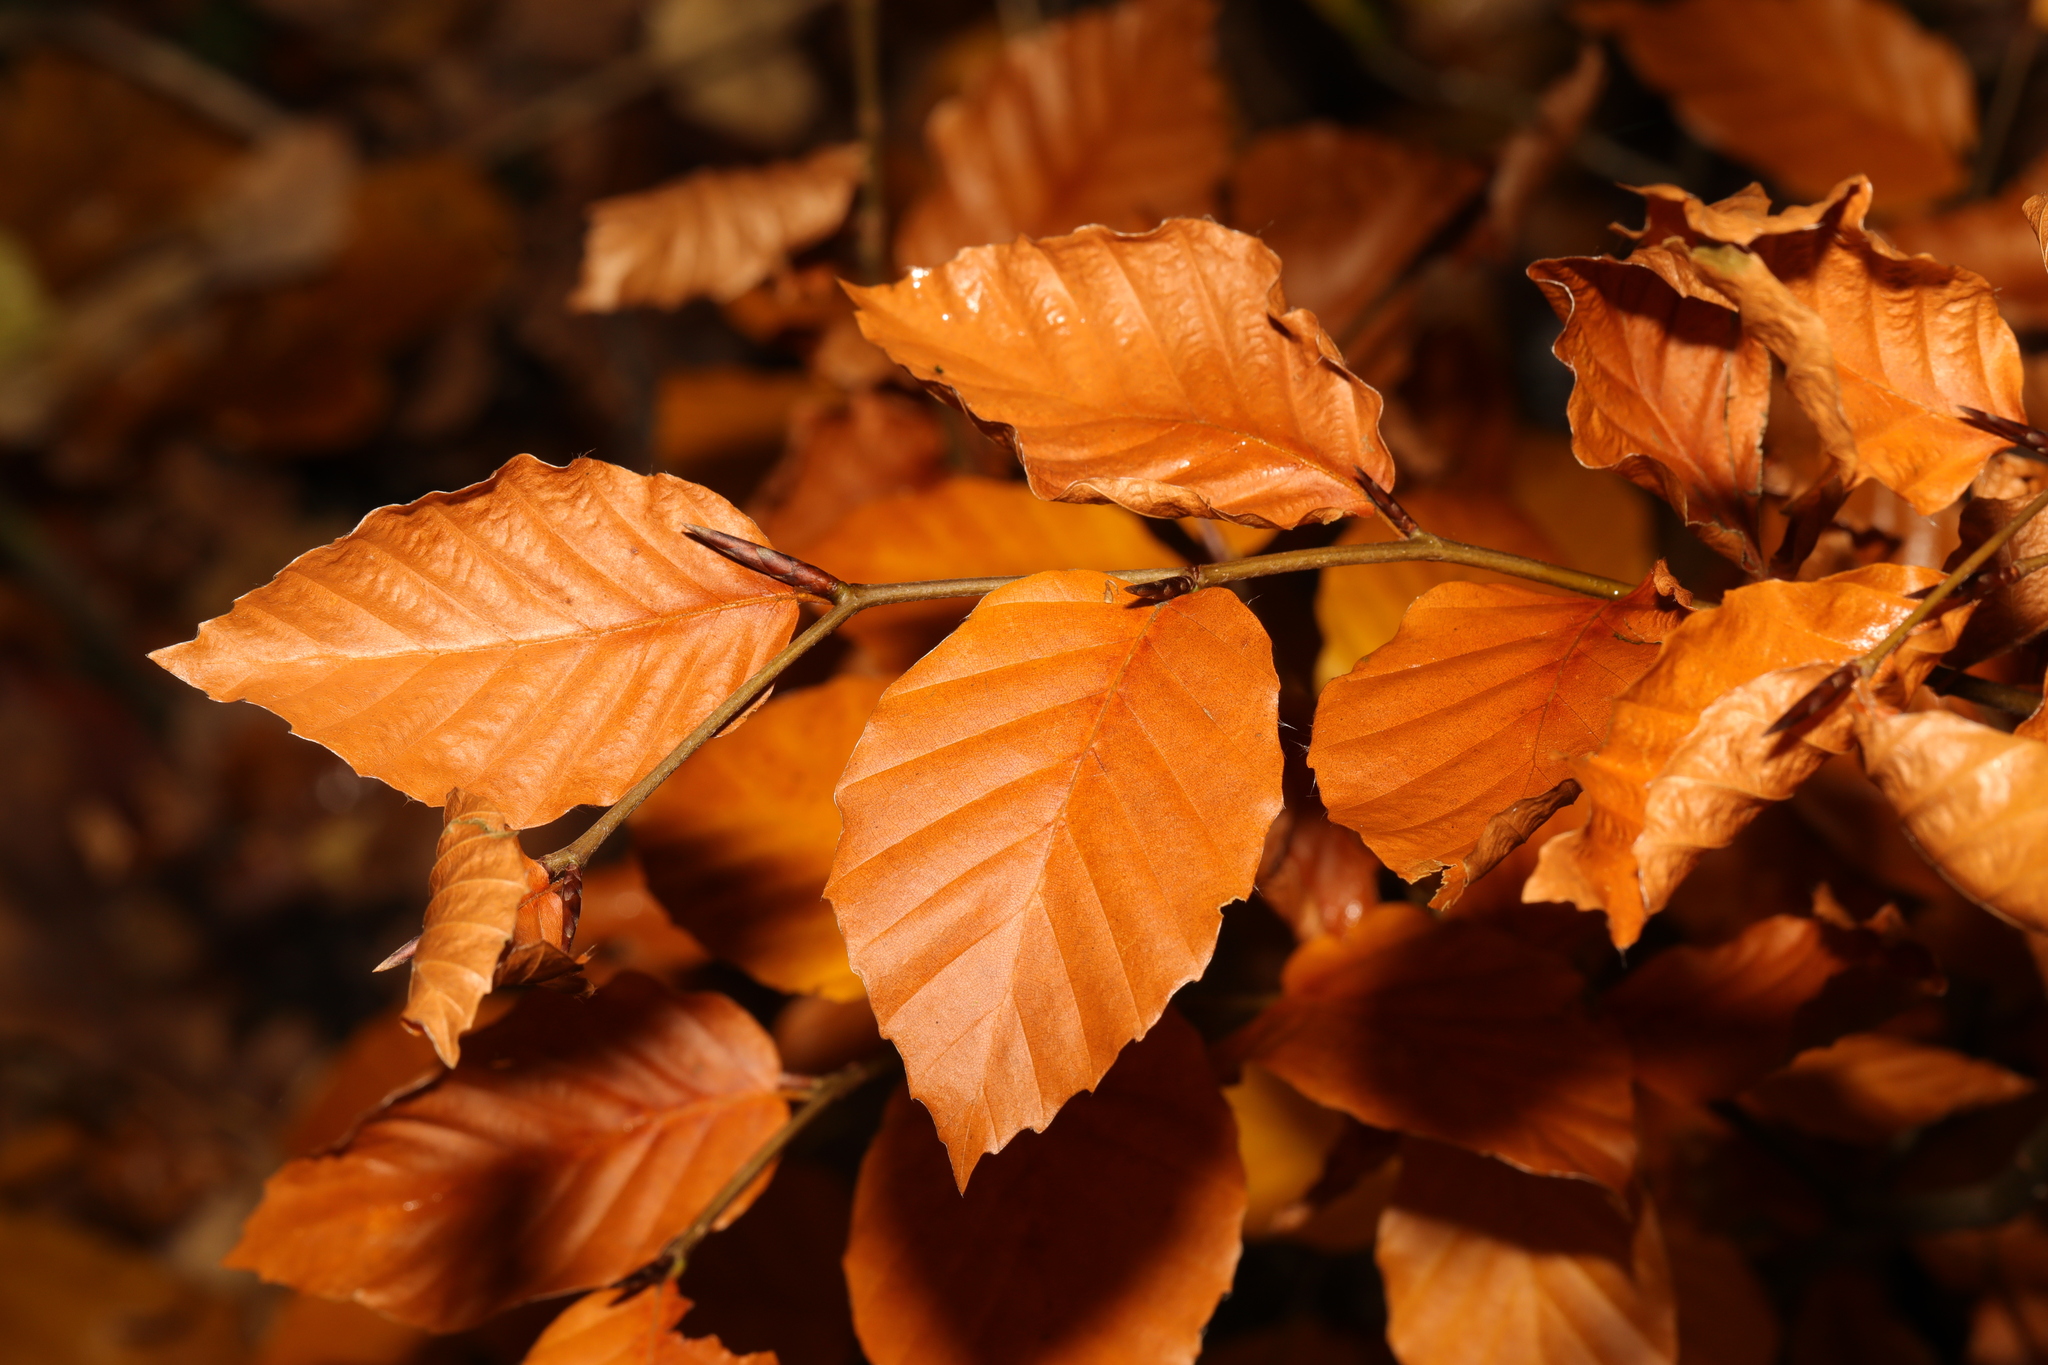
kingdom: Plantae
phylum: Tracheophyta
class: Magnoliopsida
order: Fagales
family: Fagaceae
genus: Fagus
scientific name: Fagus sylvatica
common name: Beech
